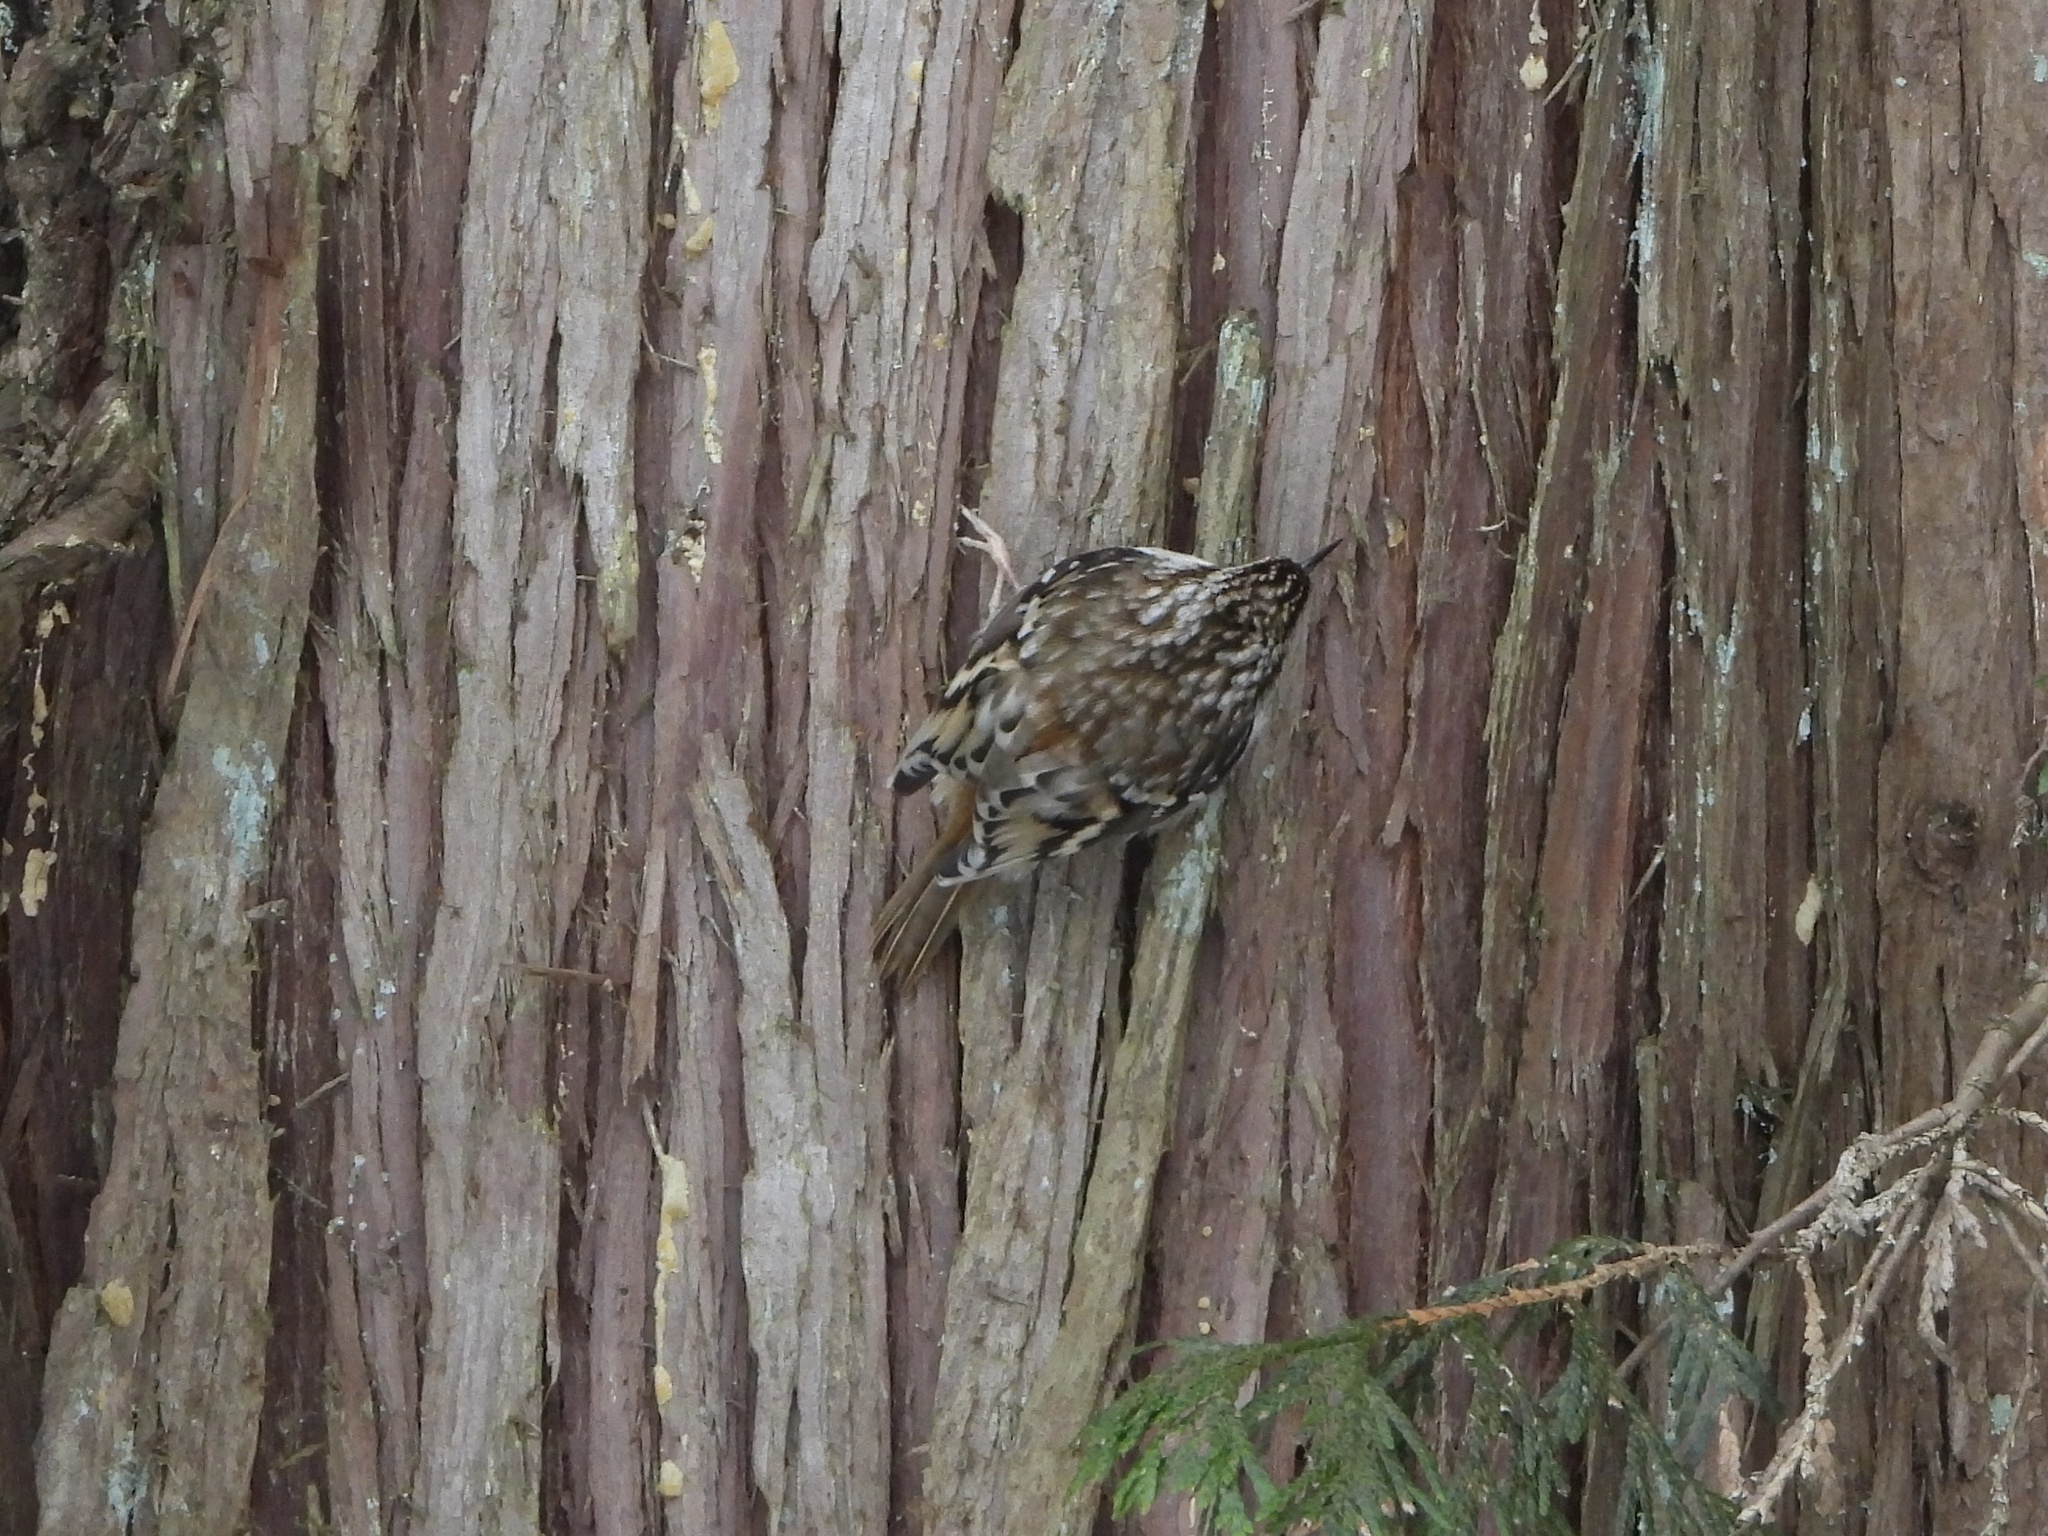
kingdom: Animalia
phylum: Chordata
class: Aves
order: Passeriformes
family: Certhiidae
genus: Certhia
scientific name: Certhia americana
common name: Brown creeper
